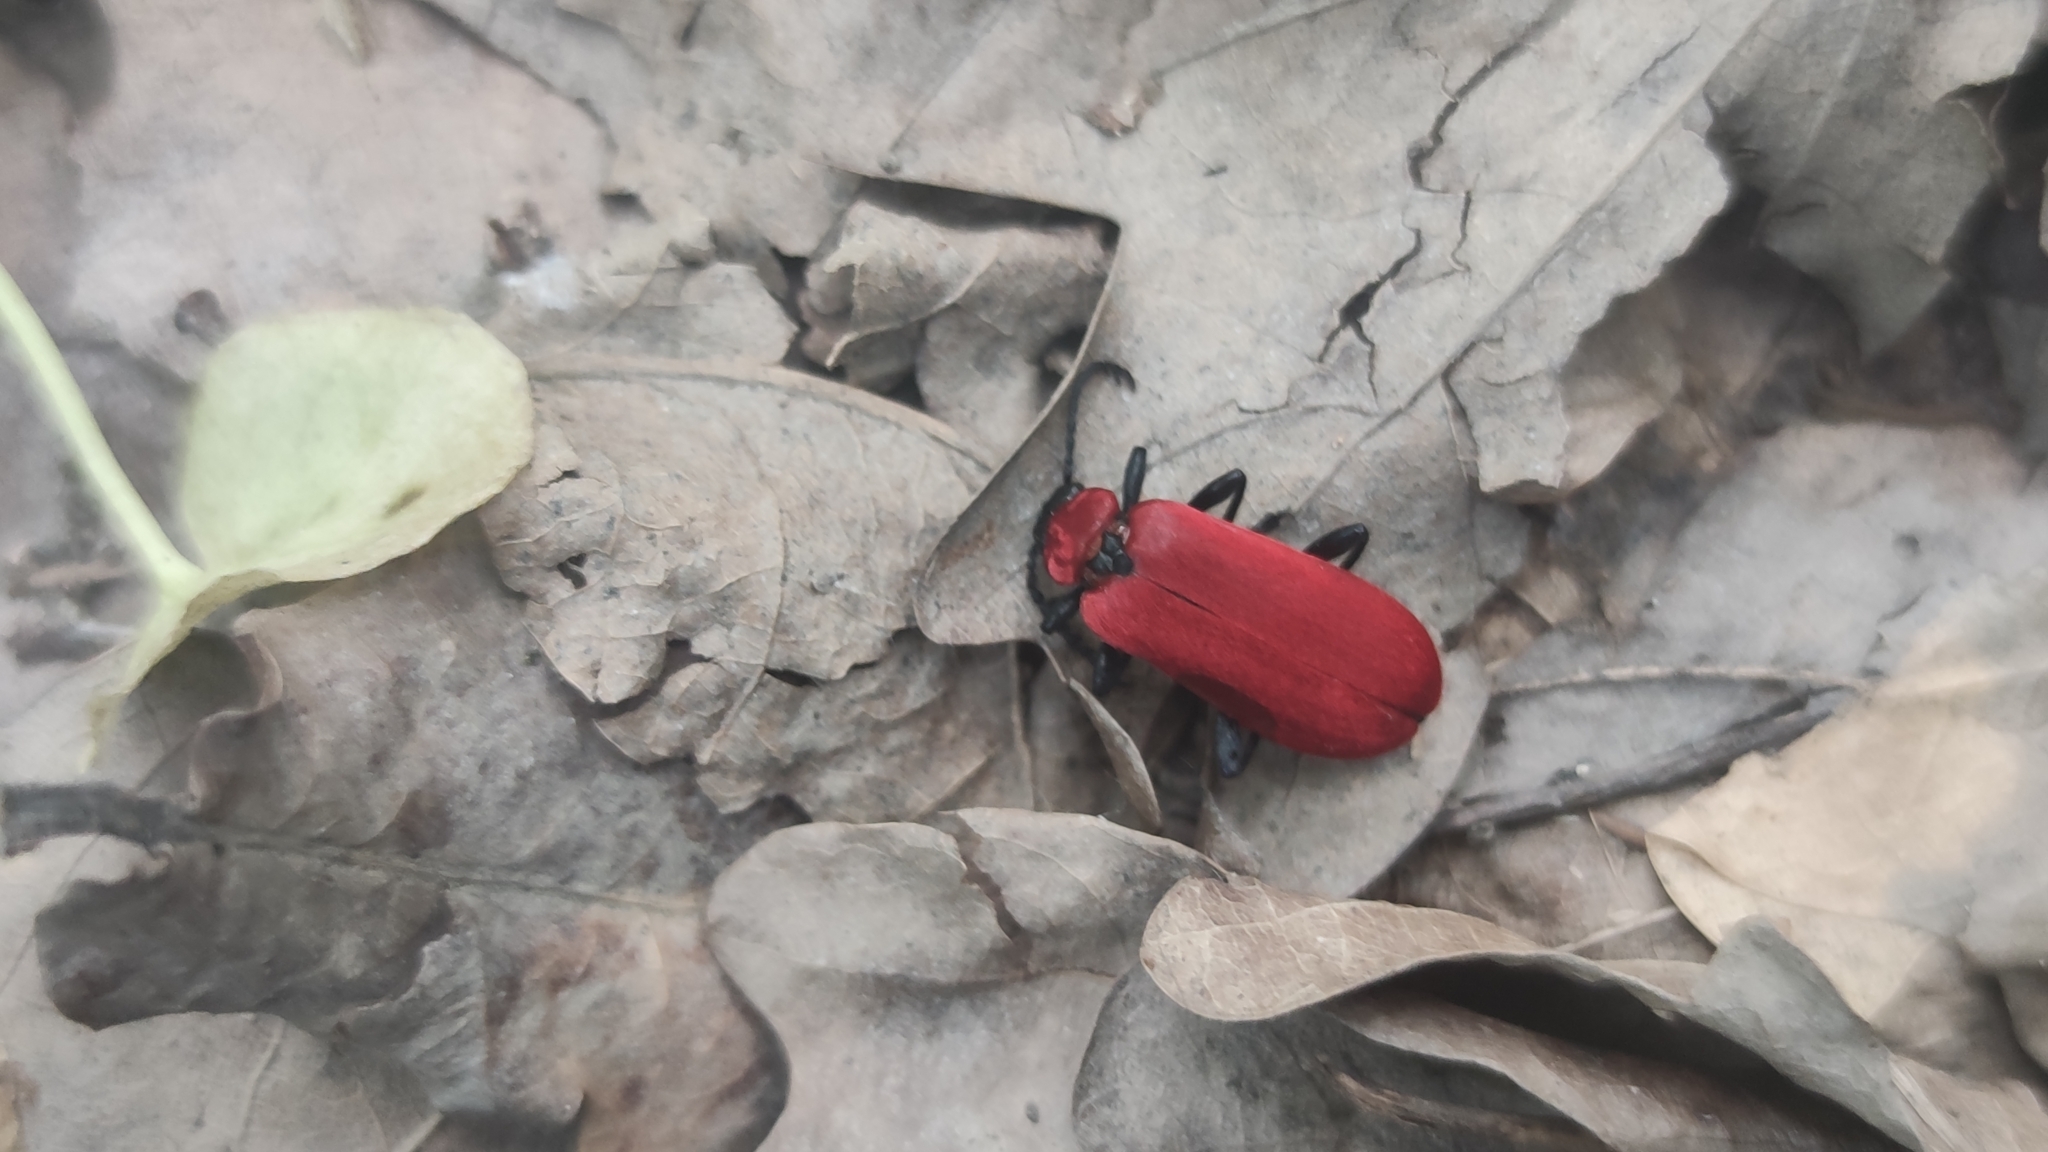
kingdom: Animalia
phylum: Arthropoda
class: Insecta
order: Coleoptera
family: Pyrochroidae
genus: Pyrochroa
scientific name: Pyrochroa coccinea
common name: Black-headed cardinal beetle
